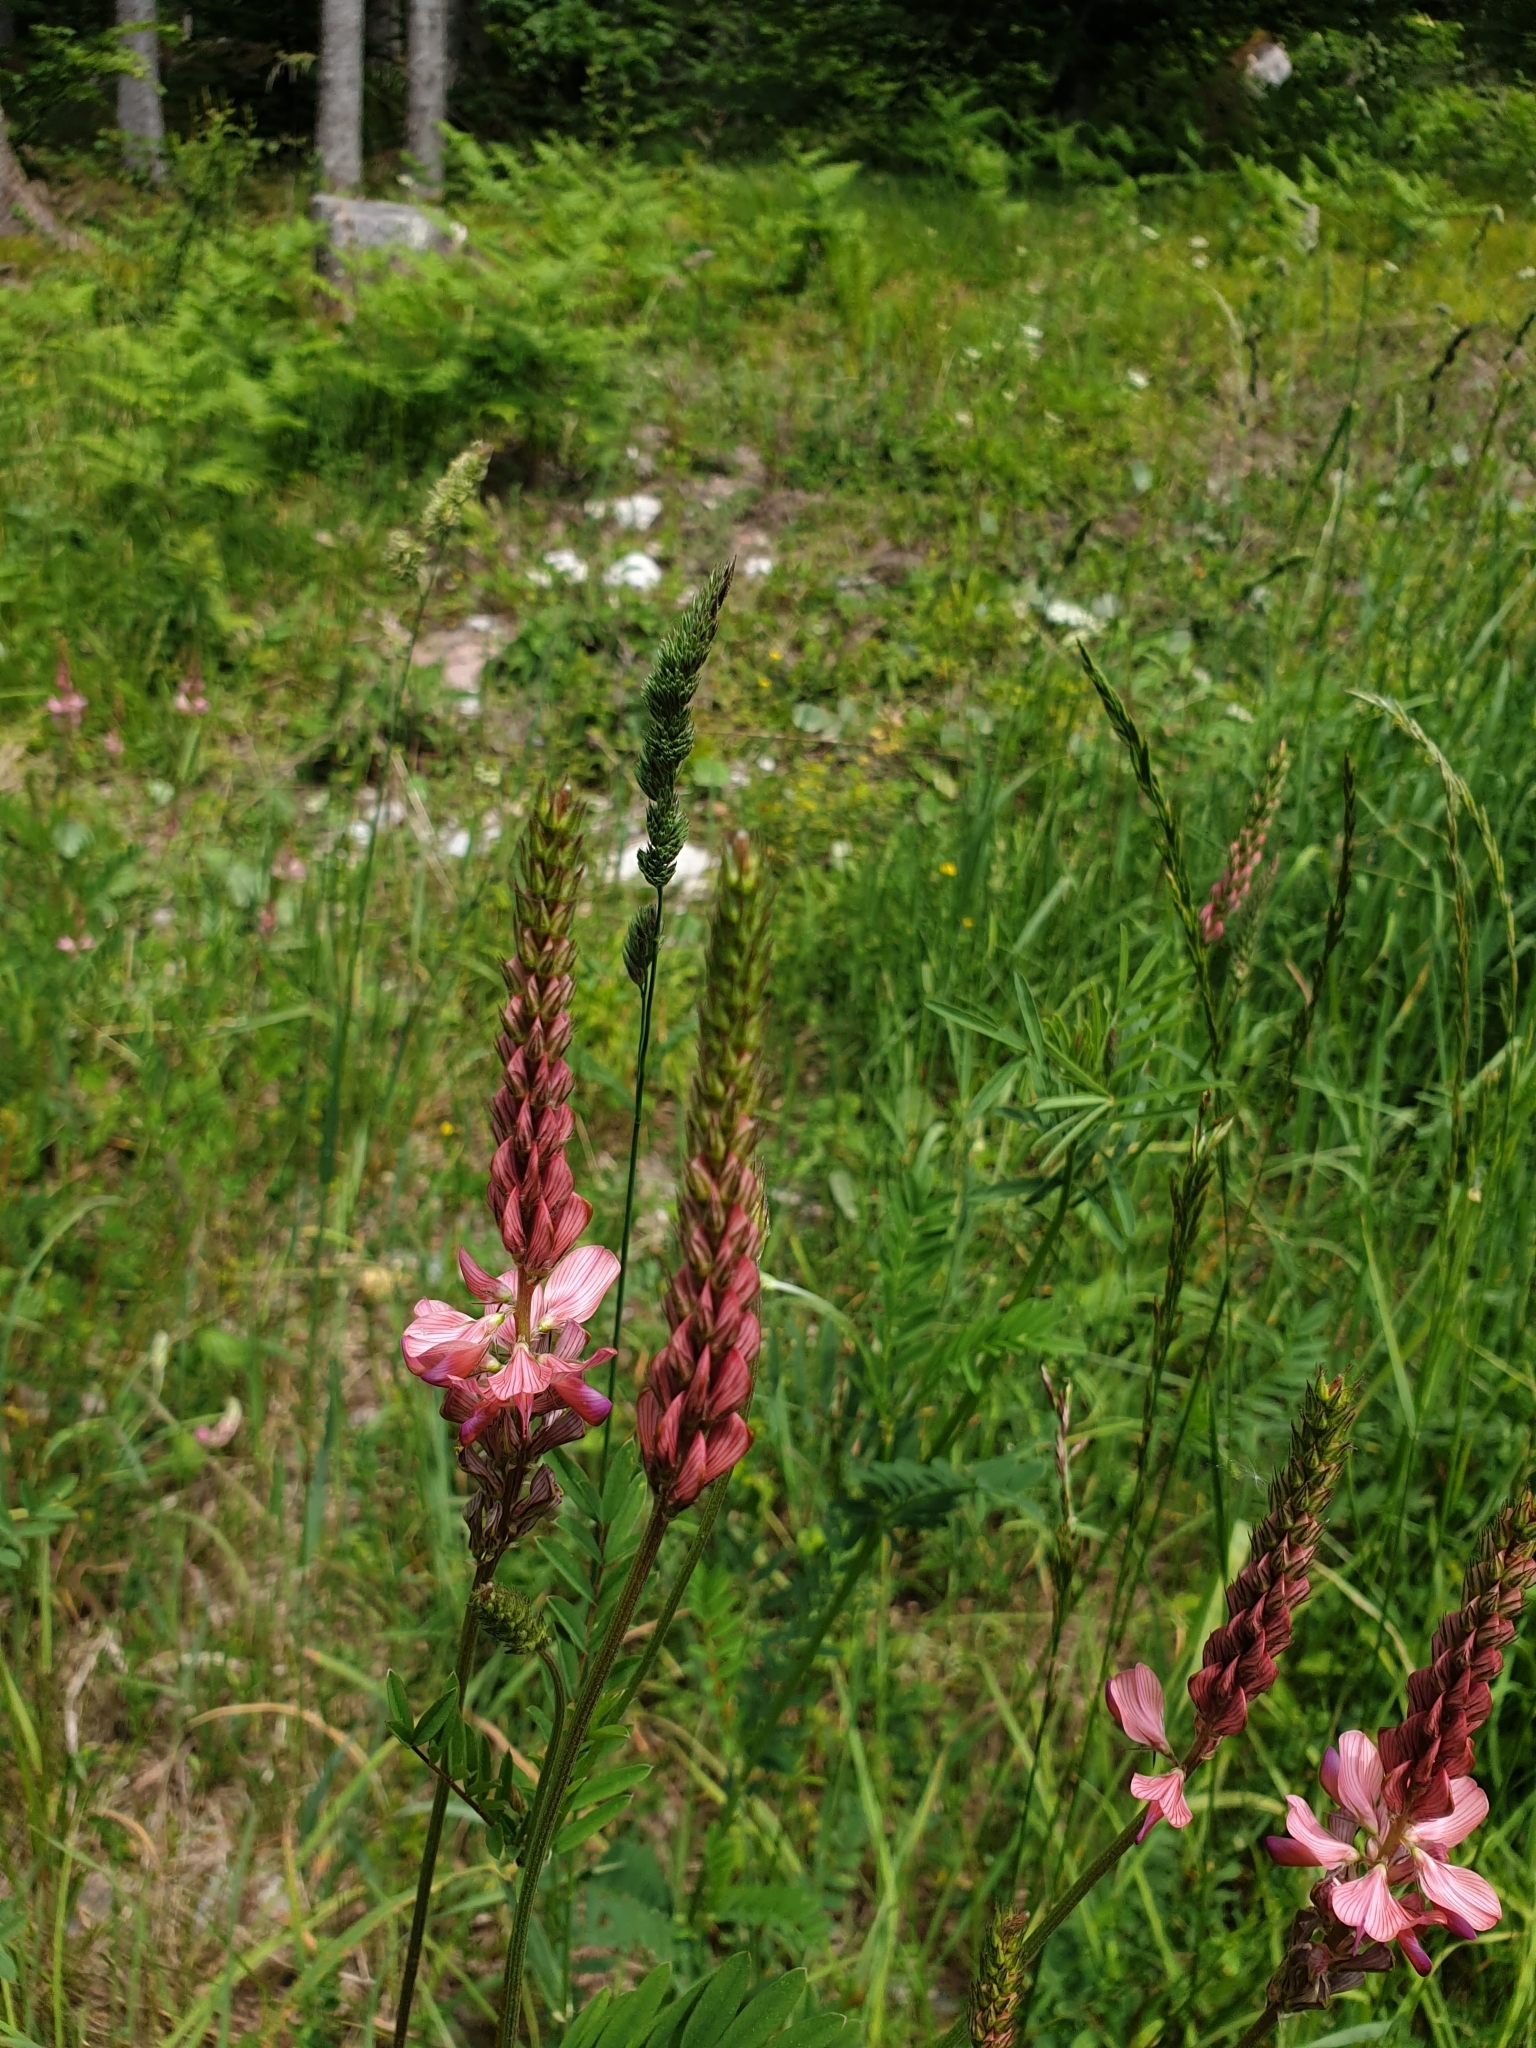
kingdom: Plantae
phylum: Tracheophyta
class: Magnoliopsida
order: Fabales
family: Fabaceae
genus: Onobrychis
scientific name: Onobrychis viciifolia
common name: Sainfoin
